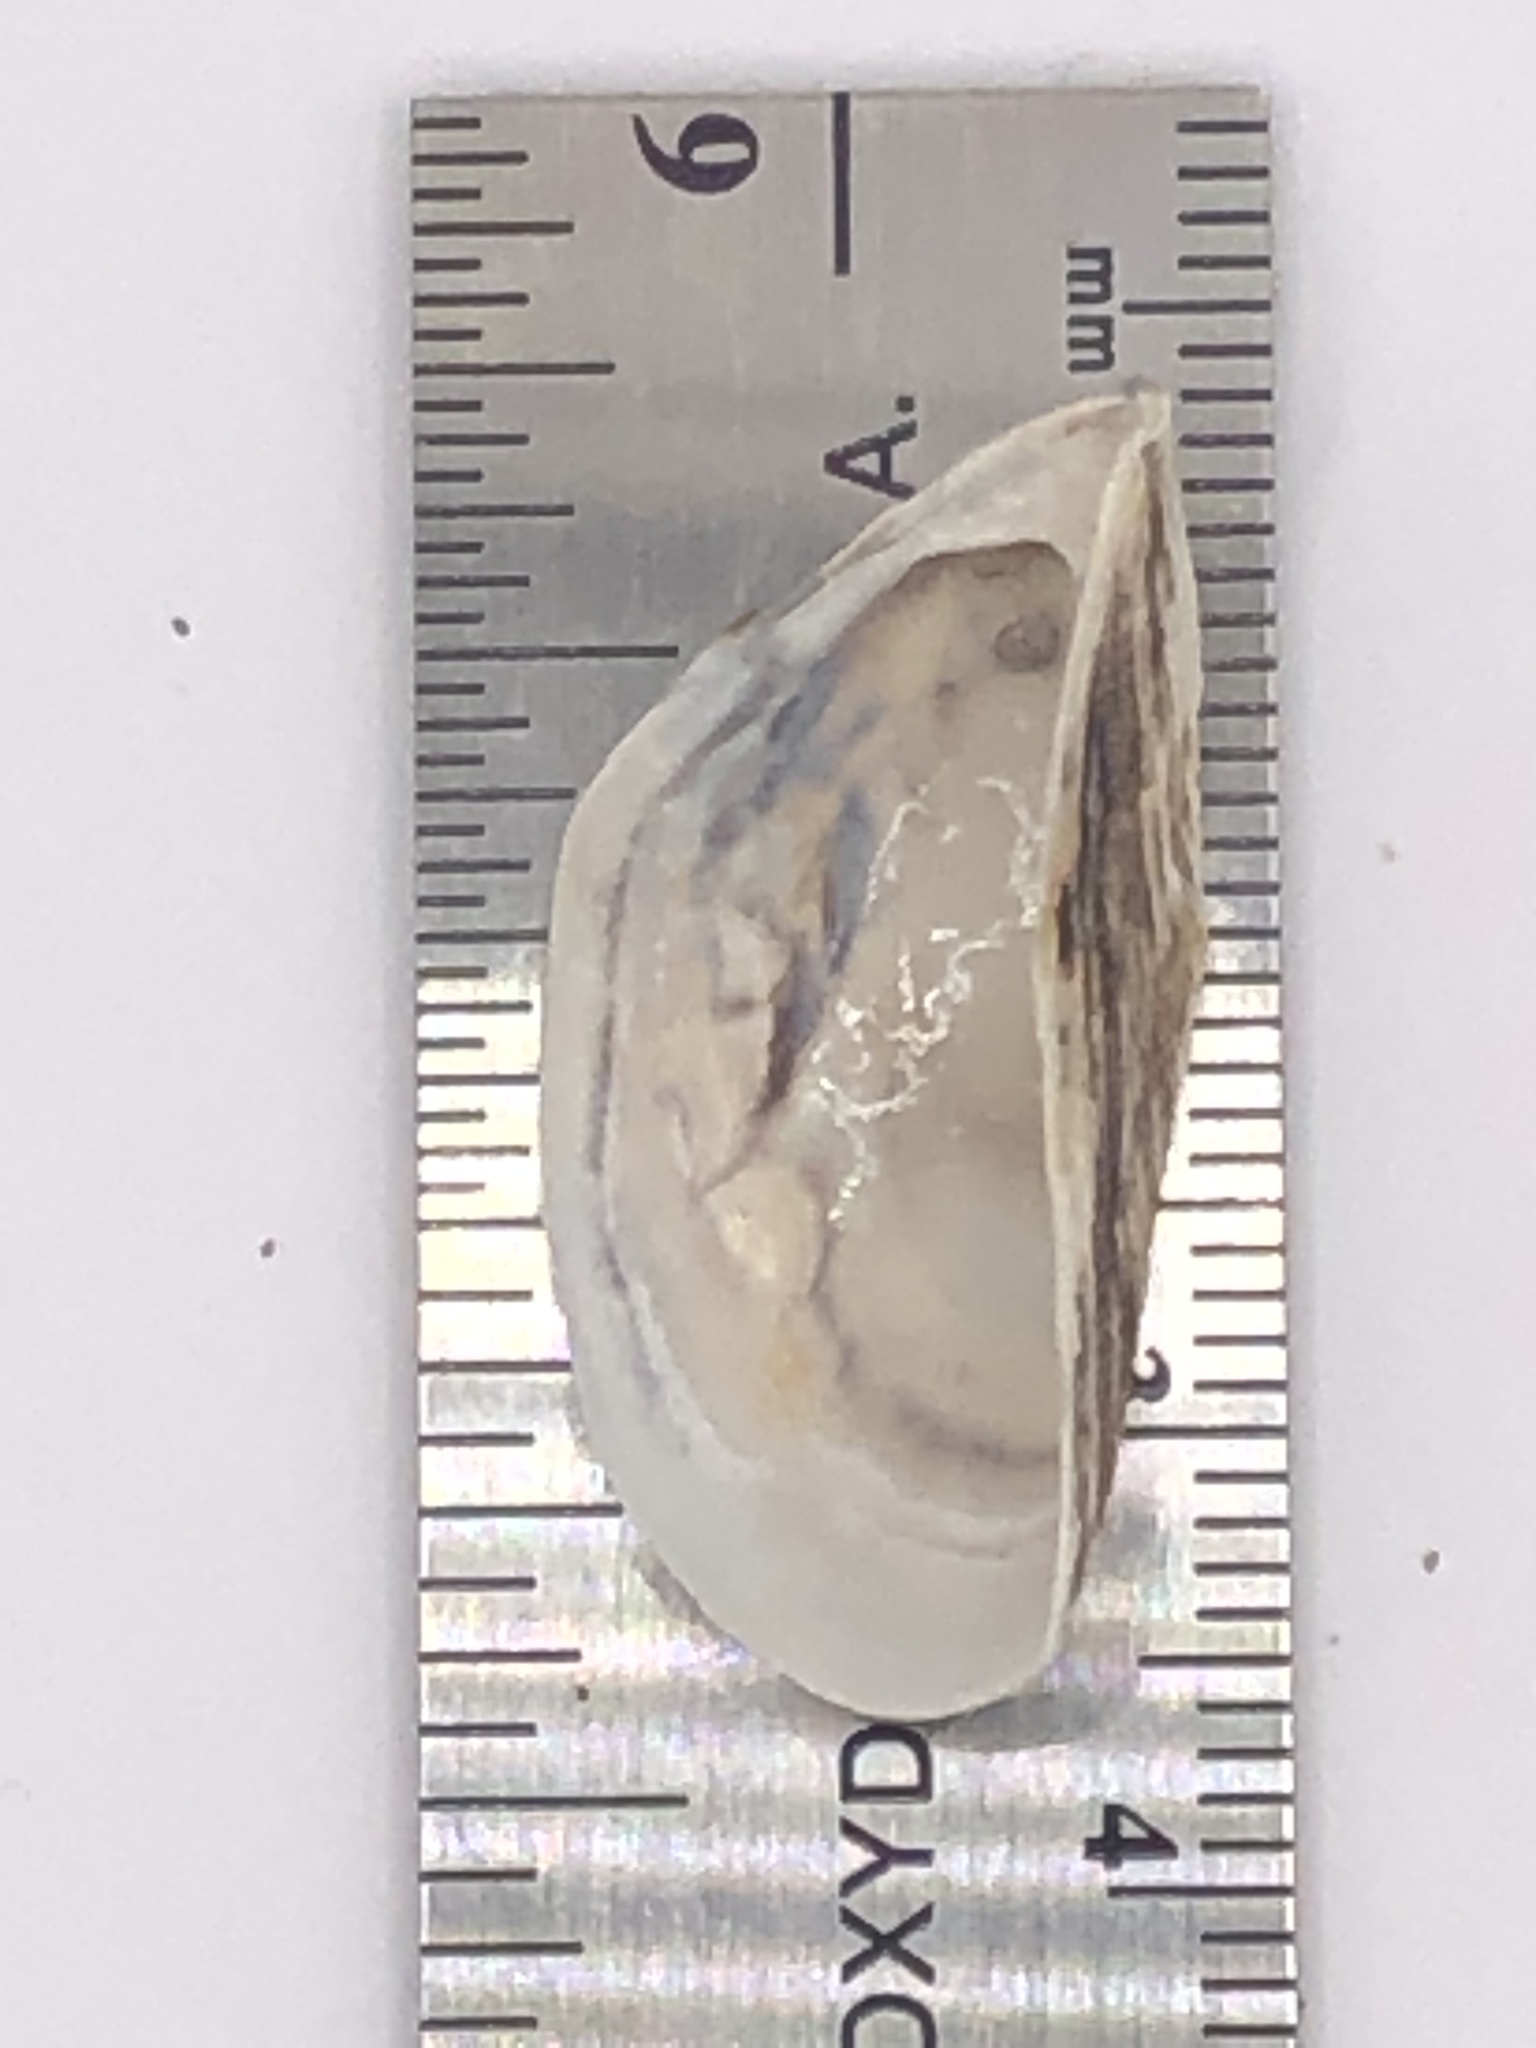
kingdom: Animalia
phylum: Mollusca
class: Bivalvia
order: Myida
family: Dreissenidae
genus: Dreissena
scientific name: Dreissena polymorpha
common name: Zebra mussel
